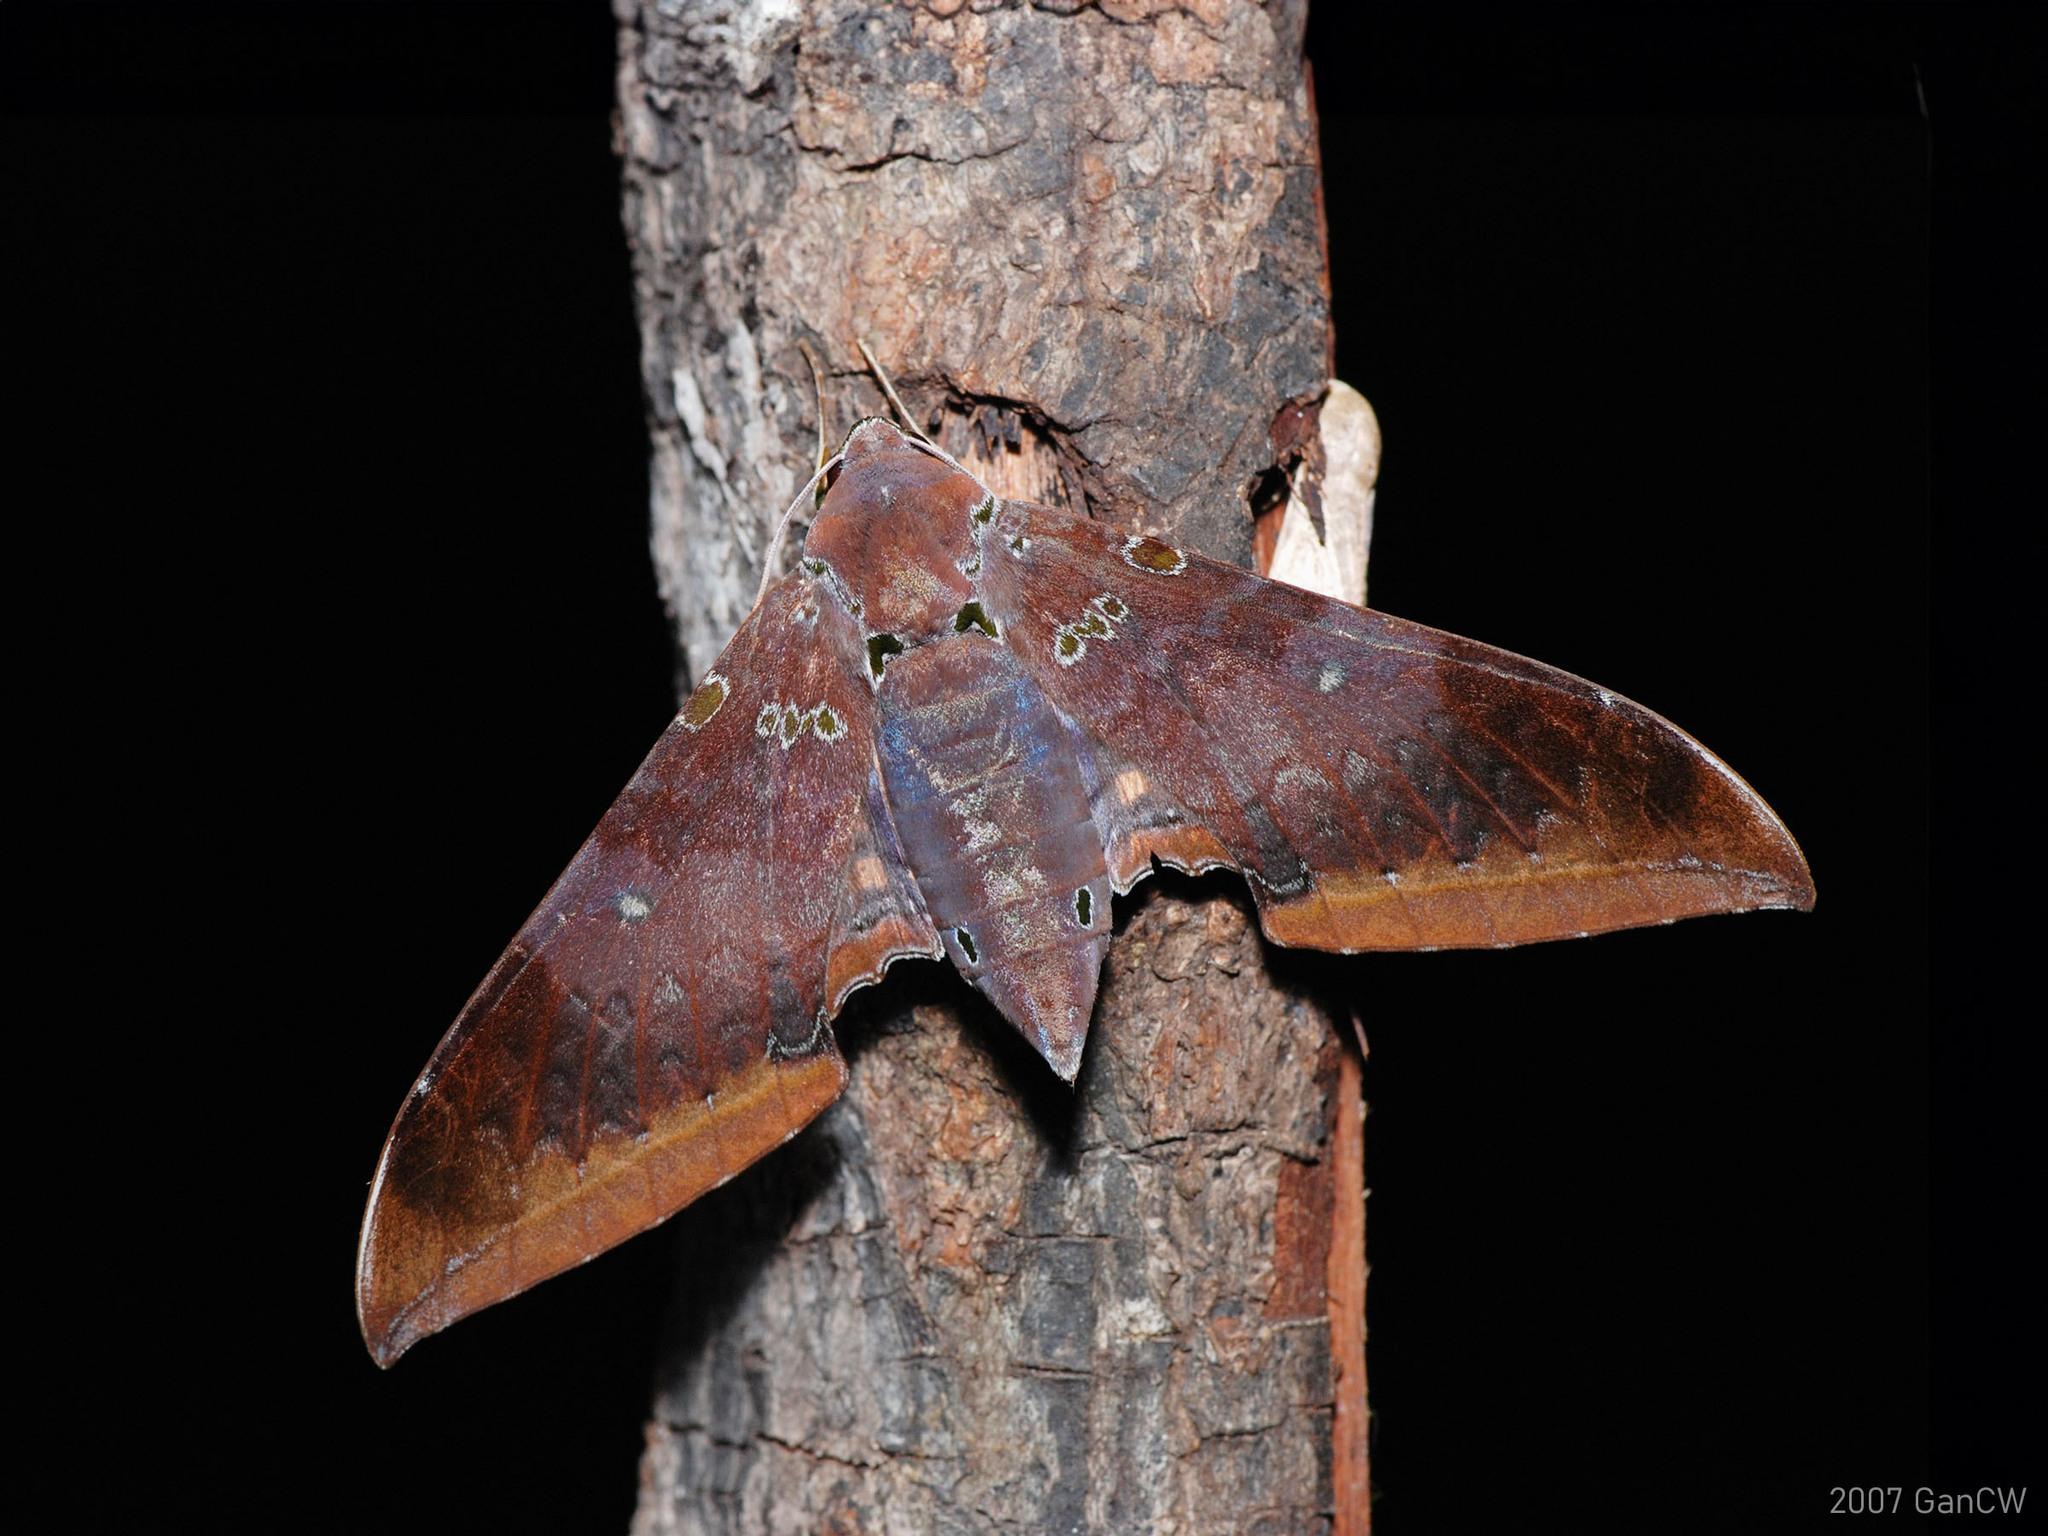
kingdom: Animalia
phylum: Arthropoda
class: Insecta
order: Lepidoptera
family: Sphingidae
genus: Ambulyx
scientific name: Ambulyx moorei
